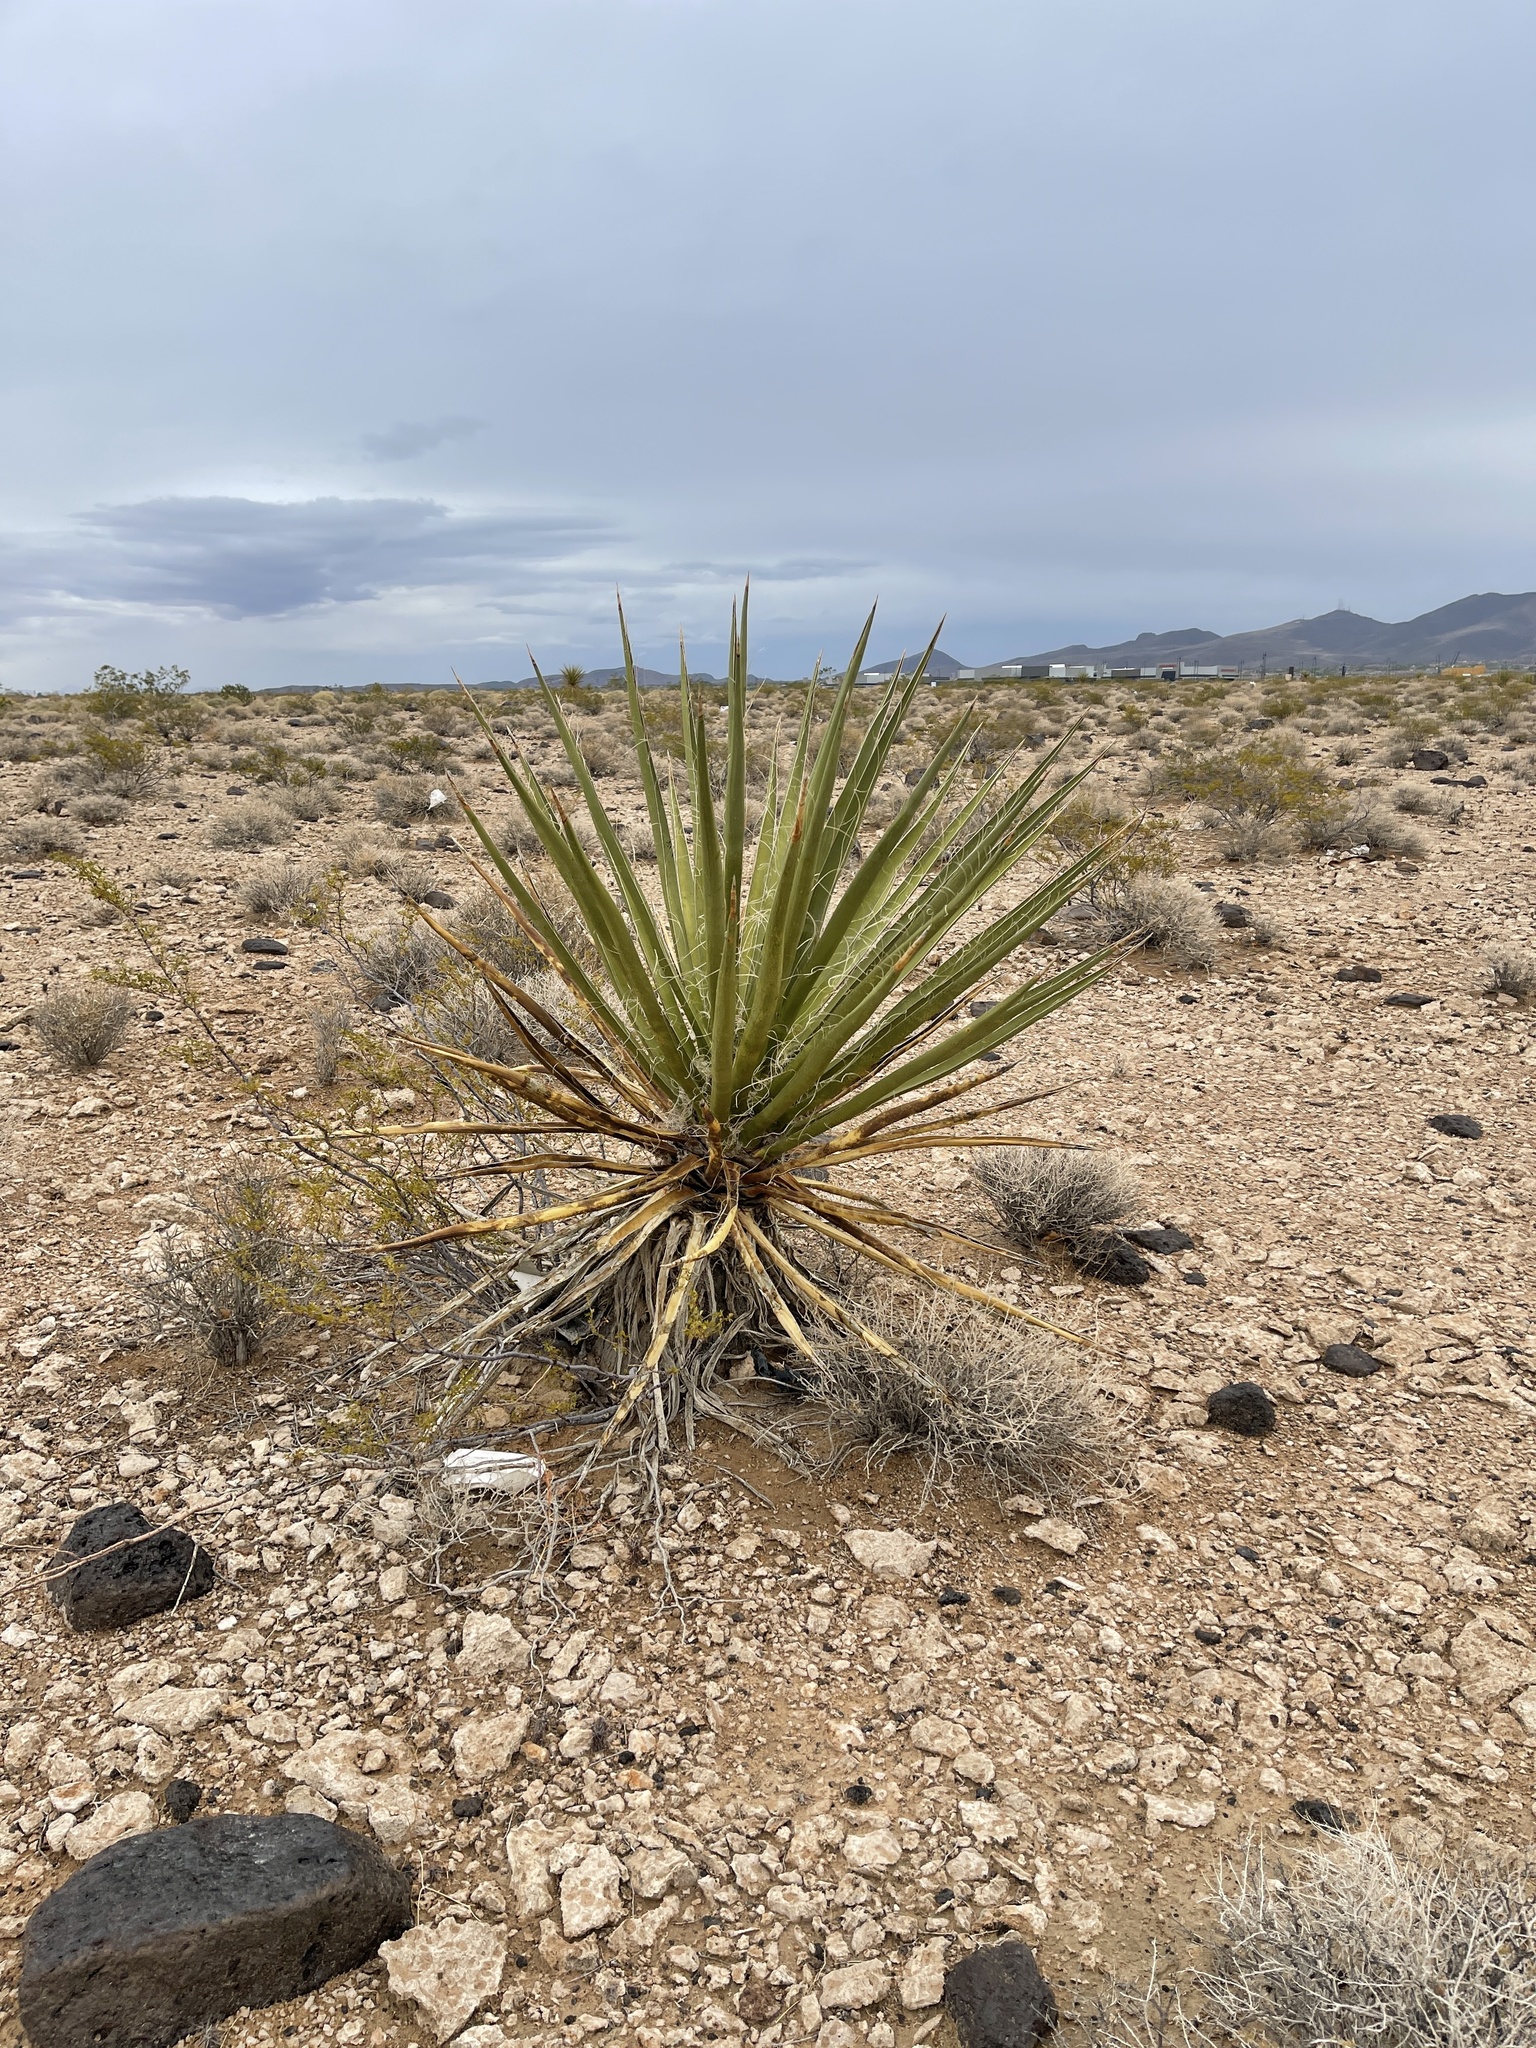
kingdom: Plantae
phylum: Tracheophyta
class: Liliopsida
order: Asparagales
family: Asparagaceae
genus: Yucca
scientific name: Yucca schidigera
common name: Mojave yucca
